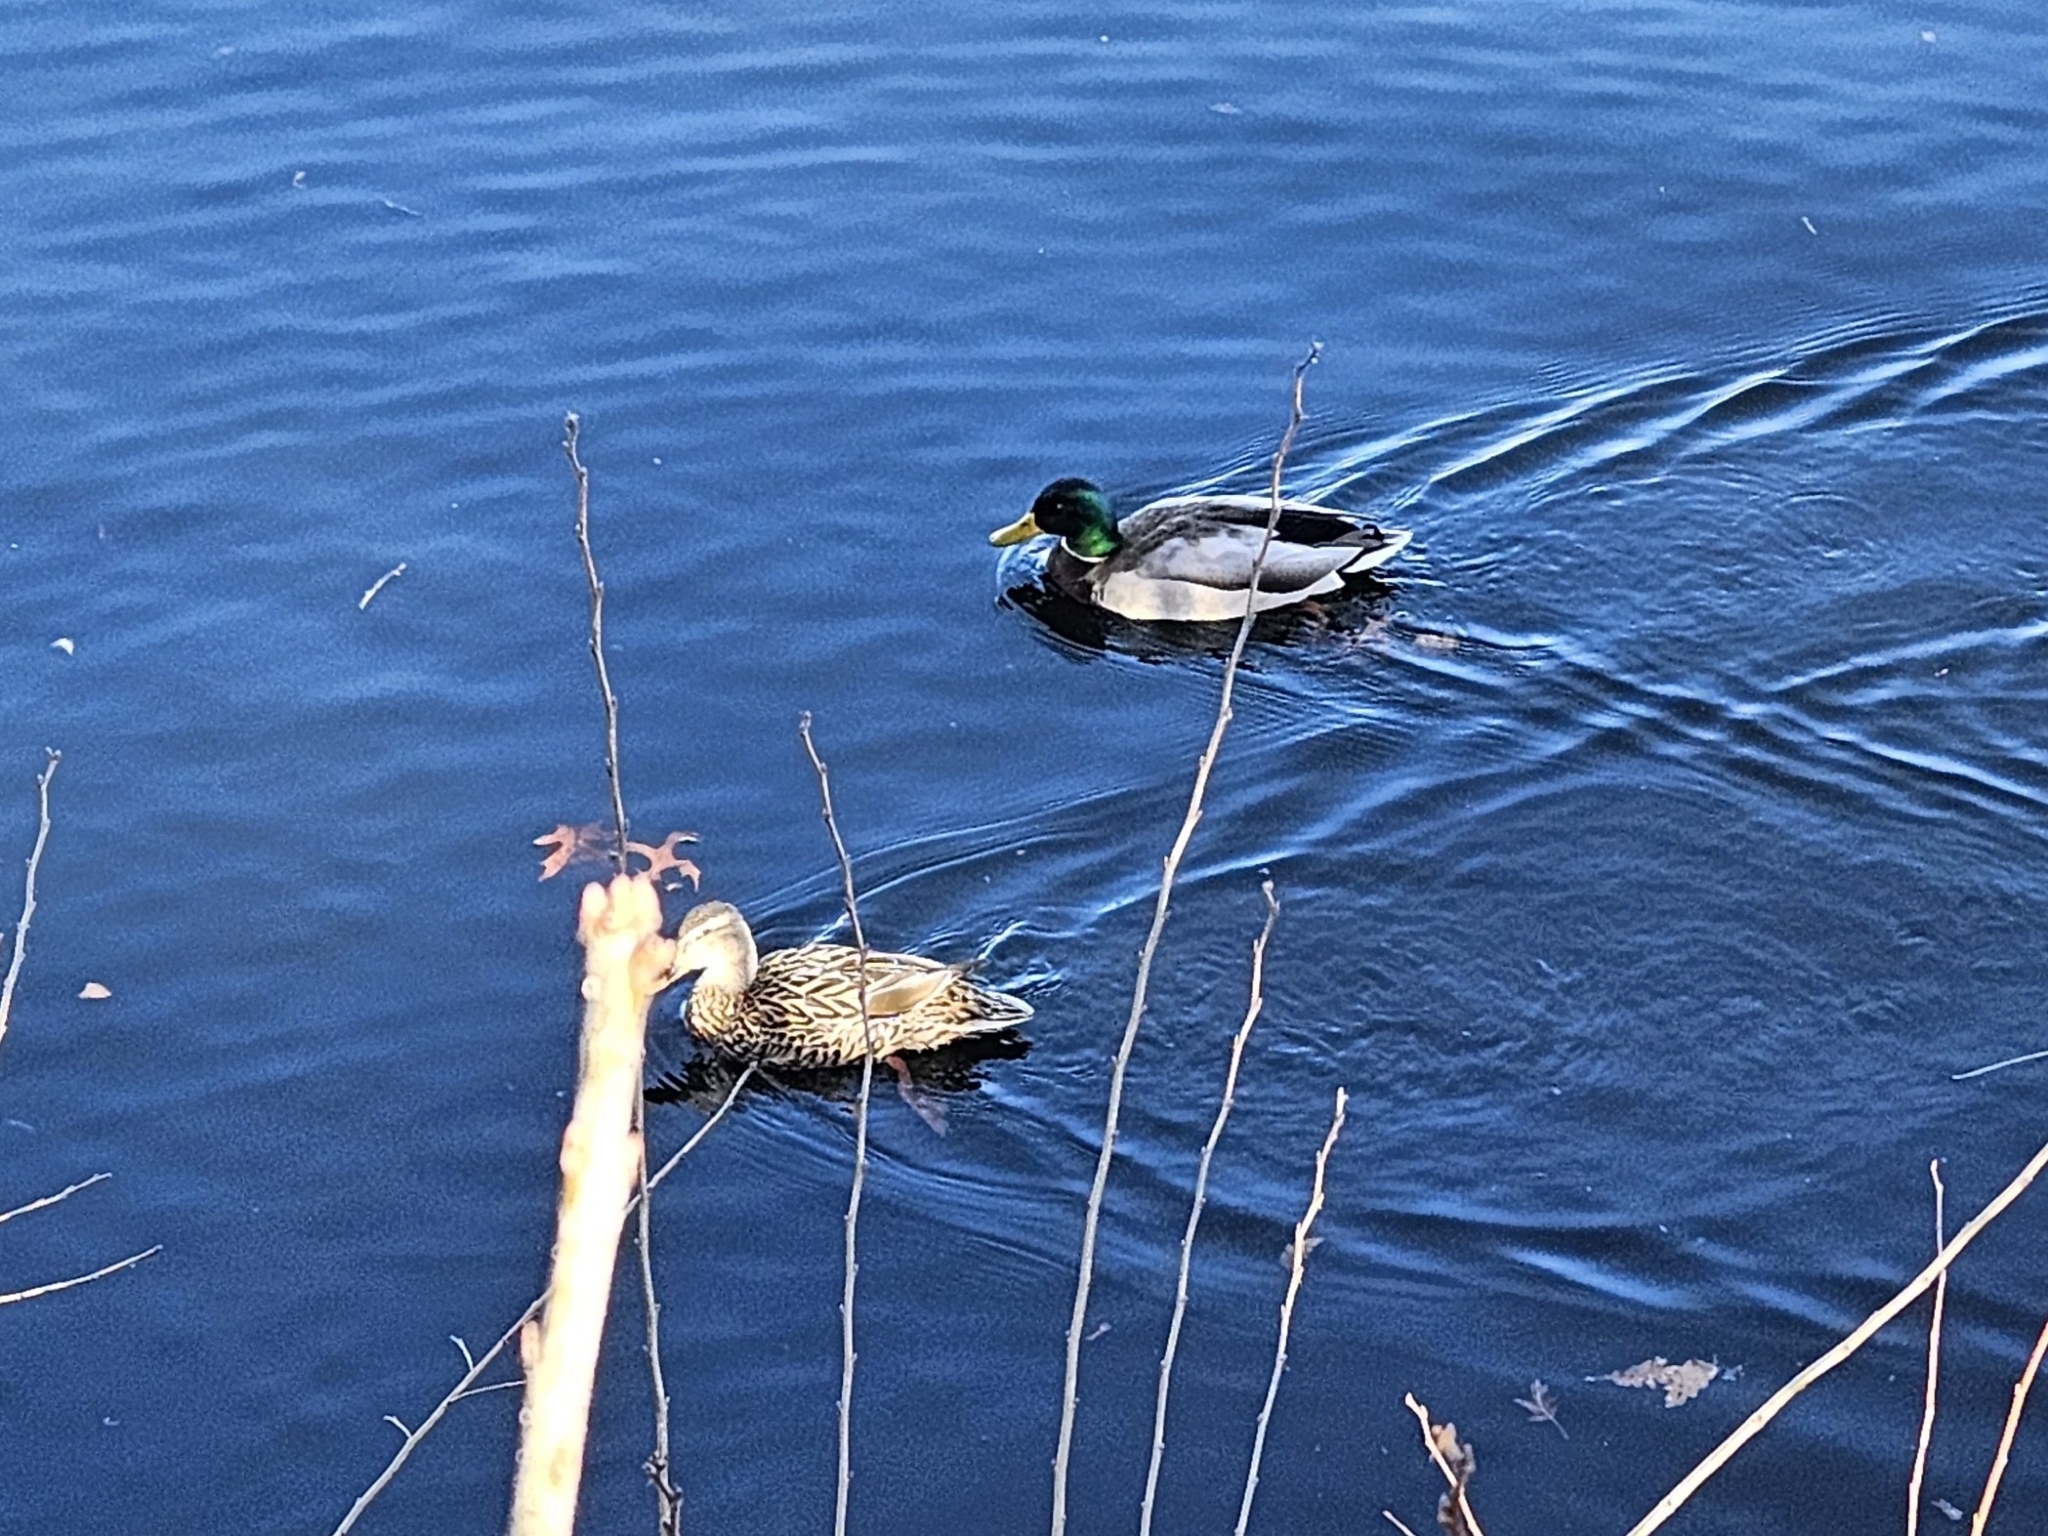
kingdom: Animalia
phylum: Chordata
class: Aves
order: Anseriformes
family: Anatidae
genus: Anas
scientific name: Anas platyrhynchos
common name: Mallard
